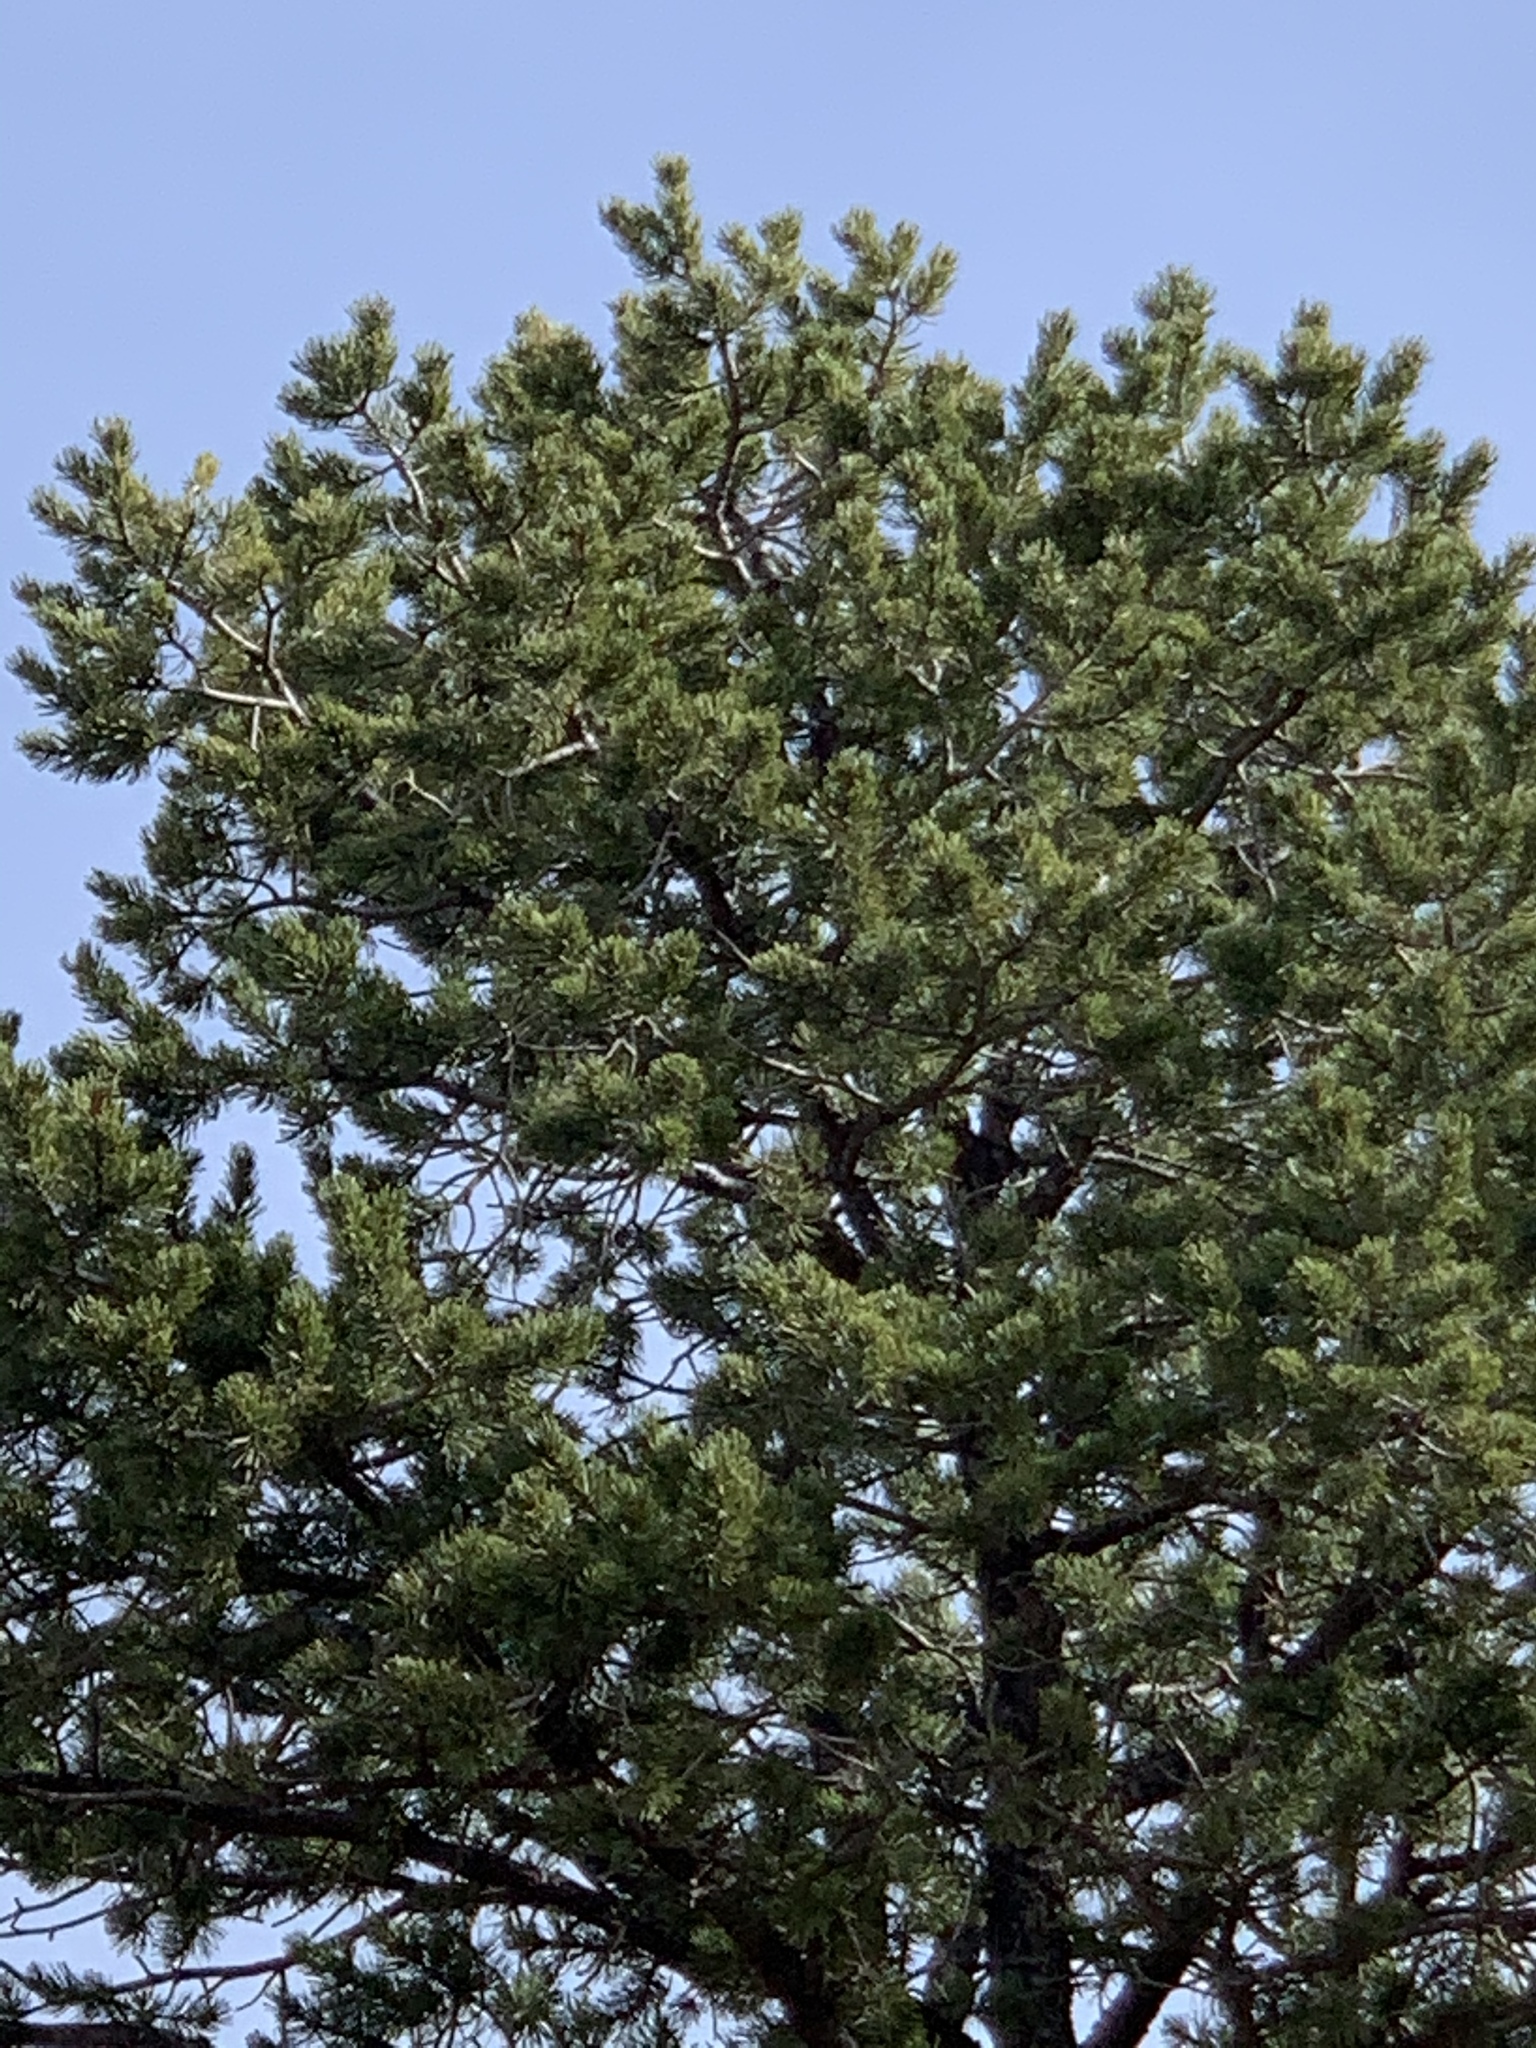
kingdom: Plantae
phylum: Tracheophyta
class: Pinopsida
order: Pinales
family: Pinaceae
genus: Pinus
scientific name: Pinus edulis
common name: Colorado pinyon
